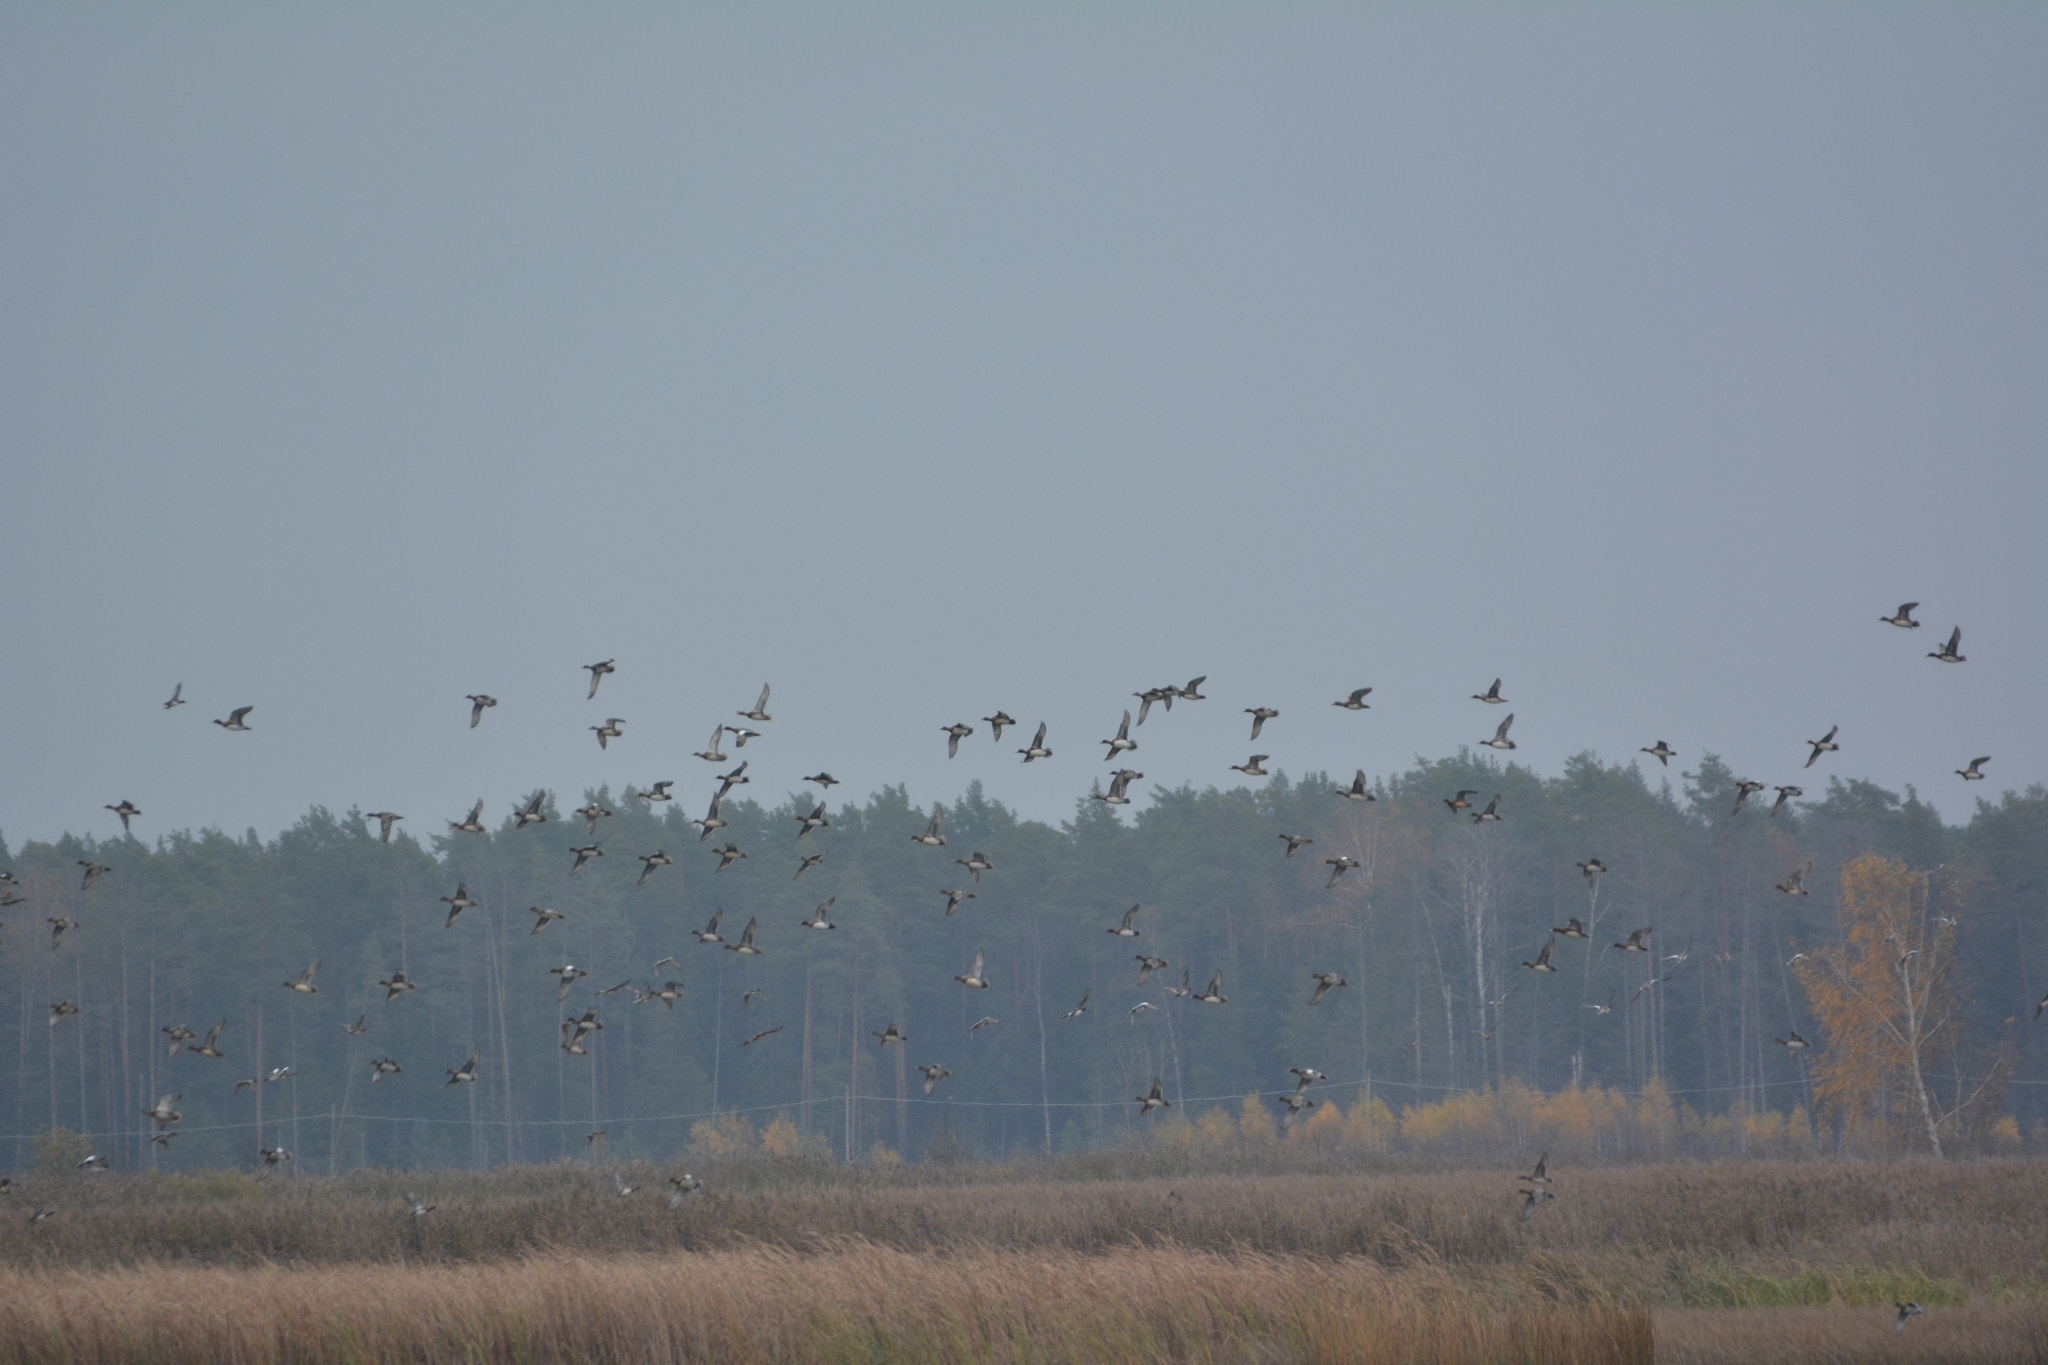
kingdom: Animalia
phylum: Chordata
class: Aves
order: Anseriformes
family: Anatidae
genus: Mareca
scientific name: Mareca penelope
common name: Eurasian wigeon
